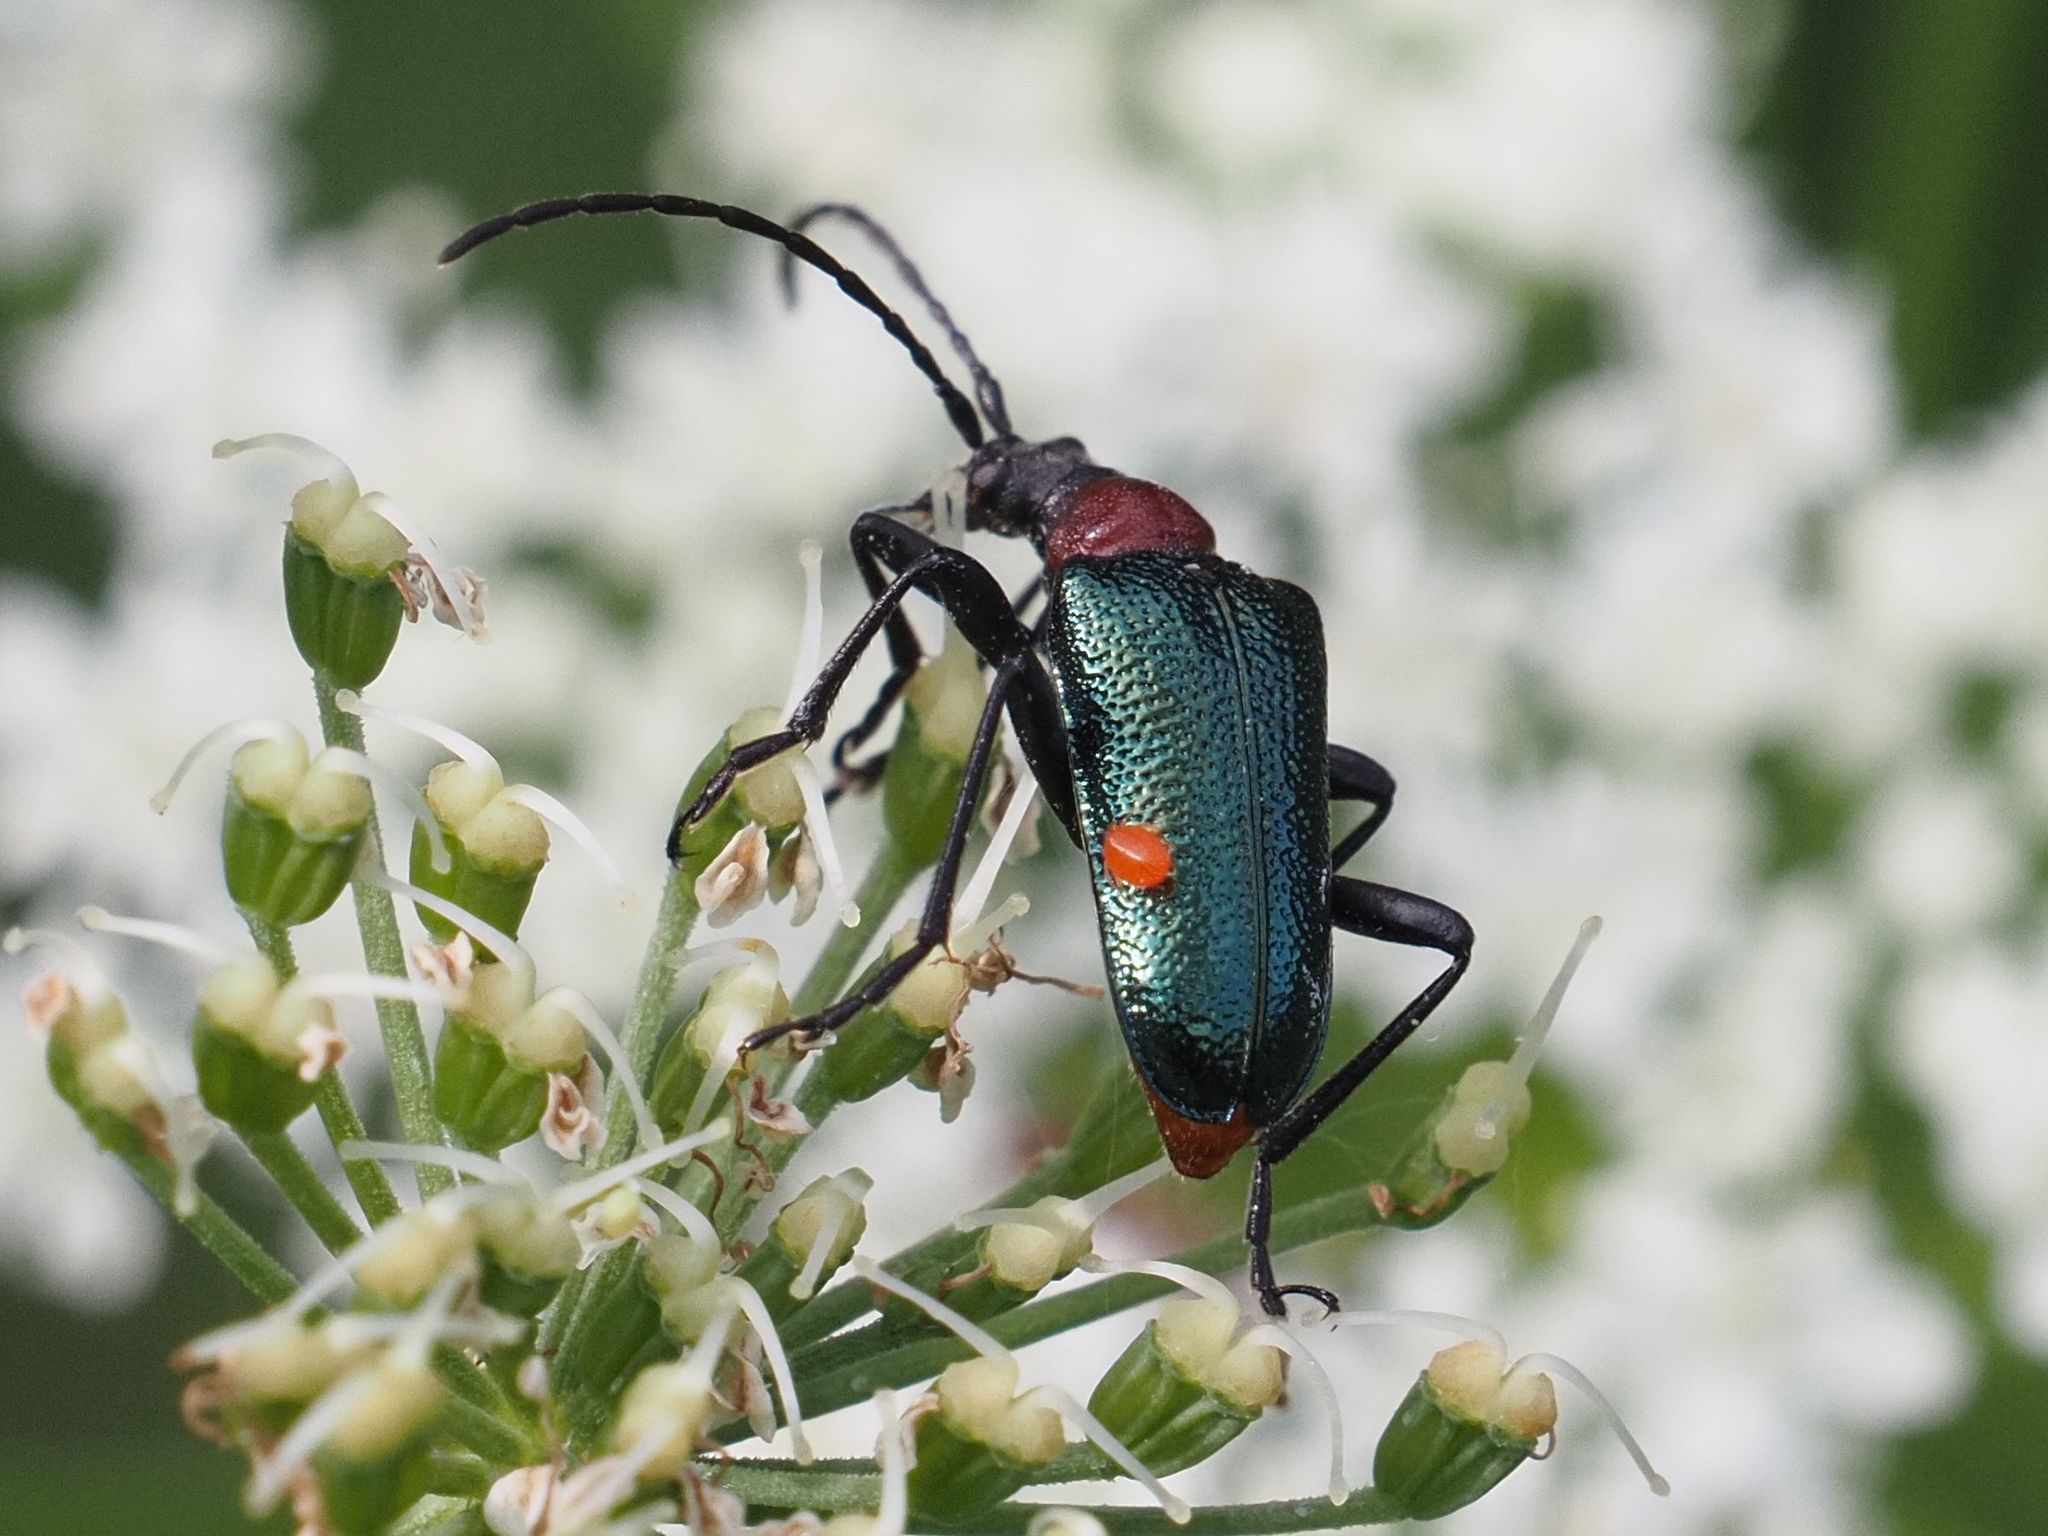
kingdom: Animalia
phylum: Arthropoda
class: Insecta
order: Coleoptera
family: Cerambycidae
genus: Gaurotes
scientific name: Gaurotes virginea
